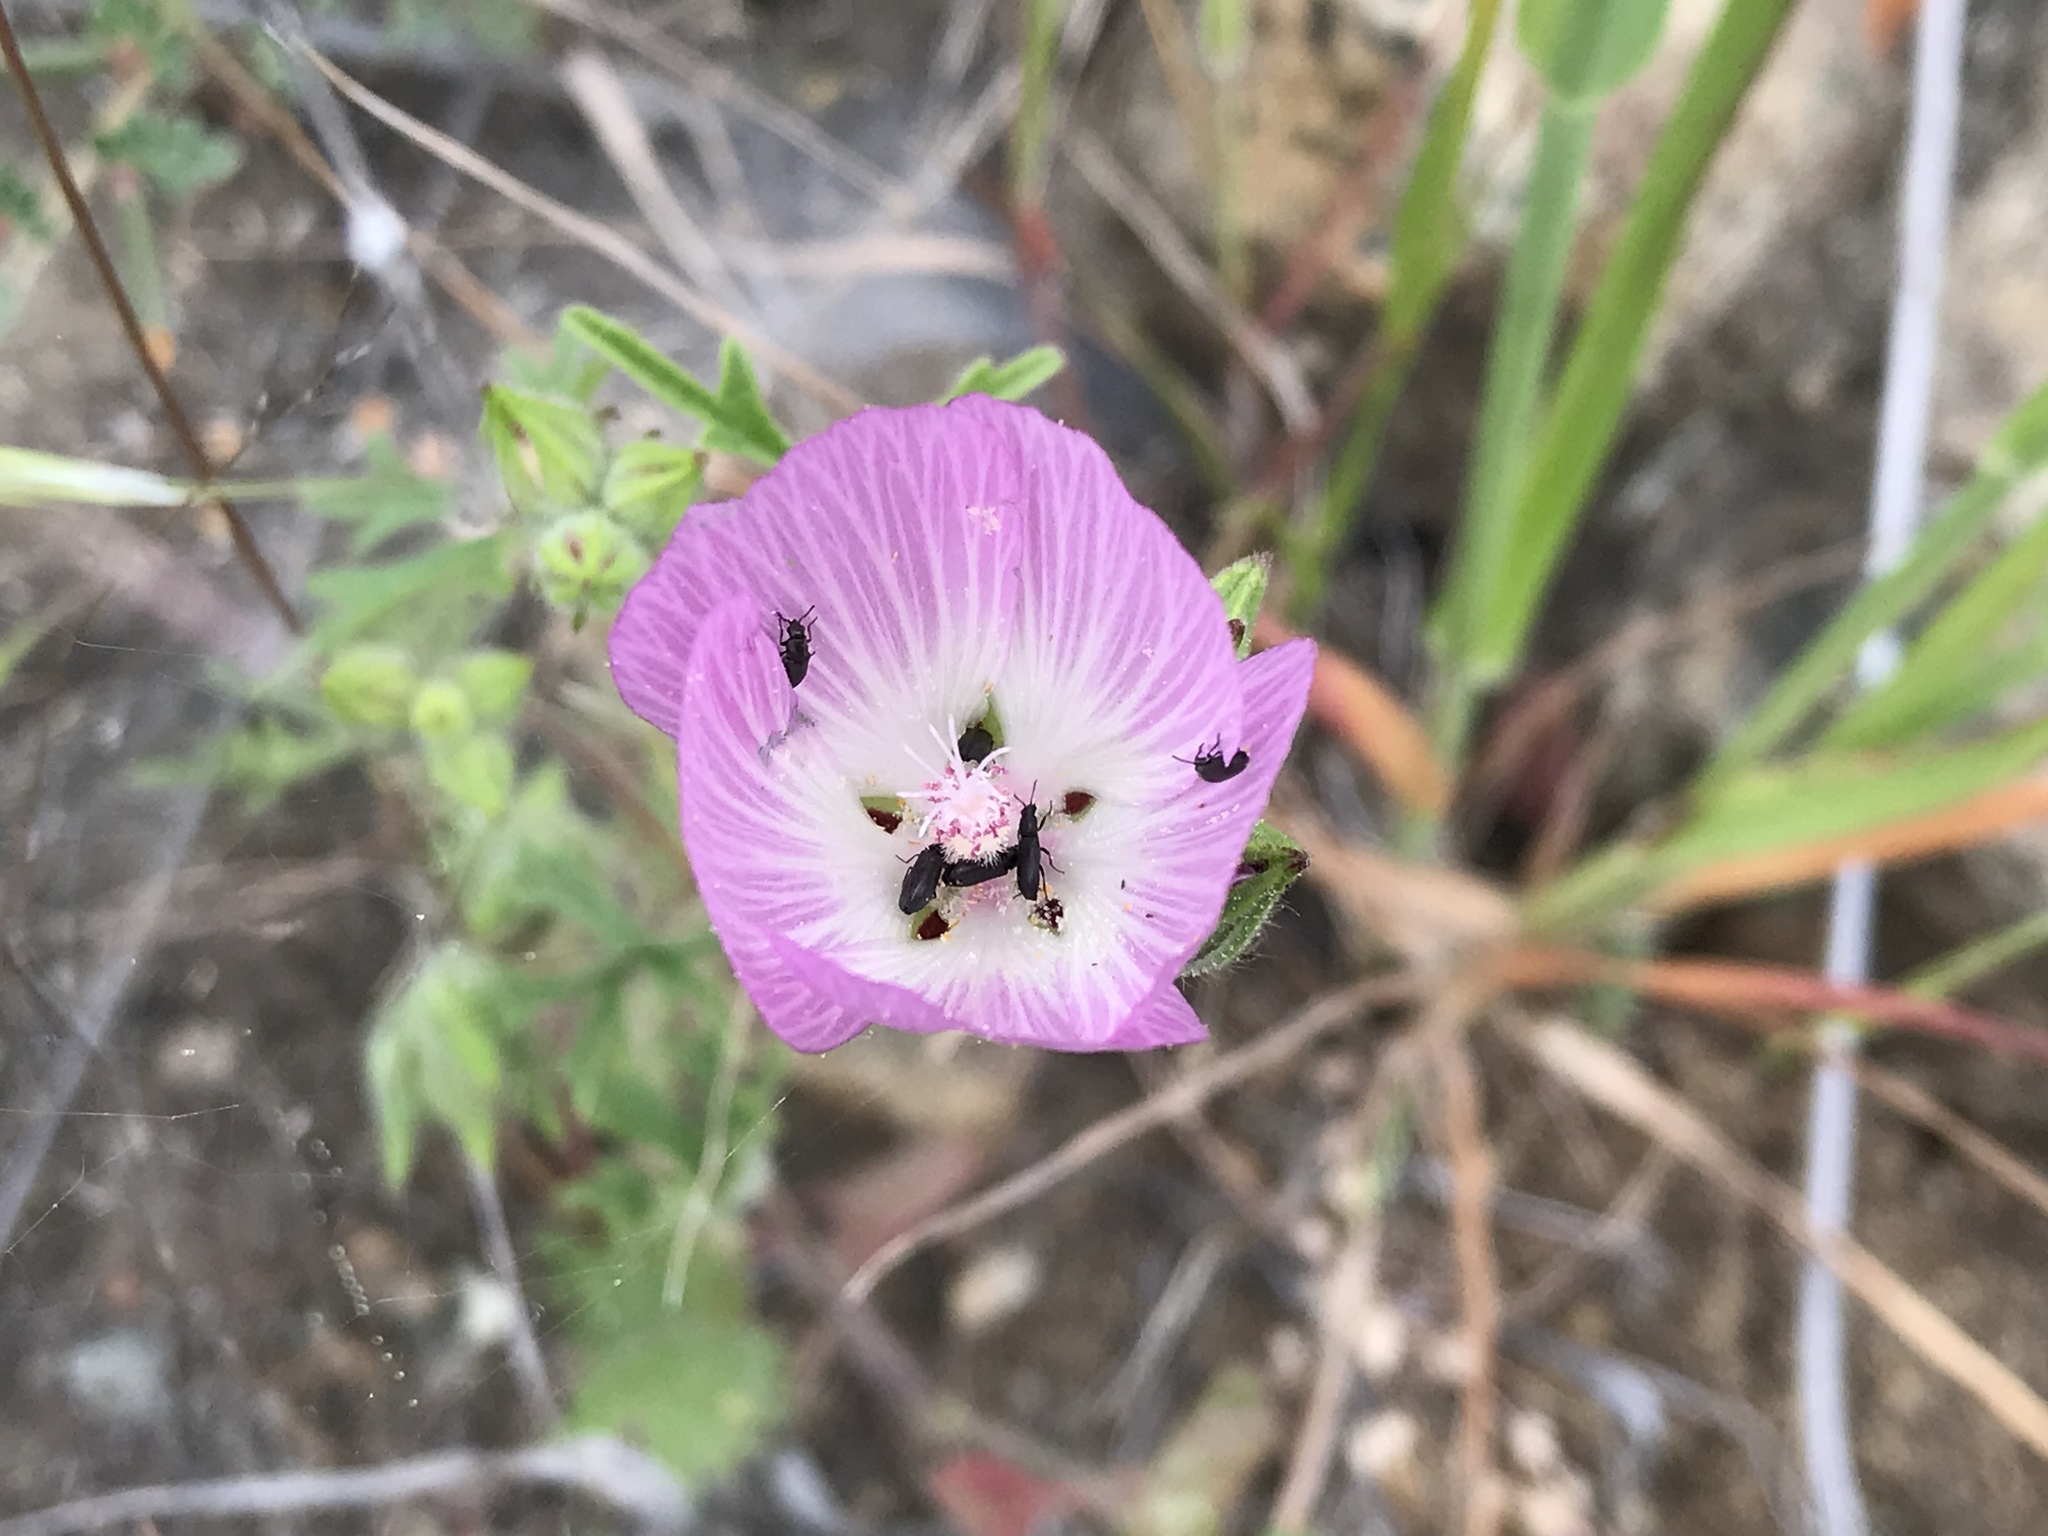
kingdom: Plantae
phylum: Tracheophyta
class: Magnoliopsida
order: Malvales
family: Malvaceae
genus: Sidalcea
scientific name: Sidalcea diploscypha
